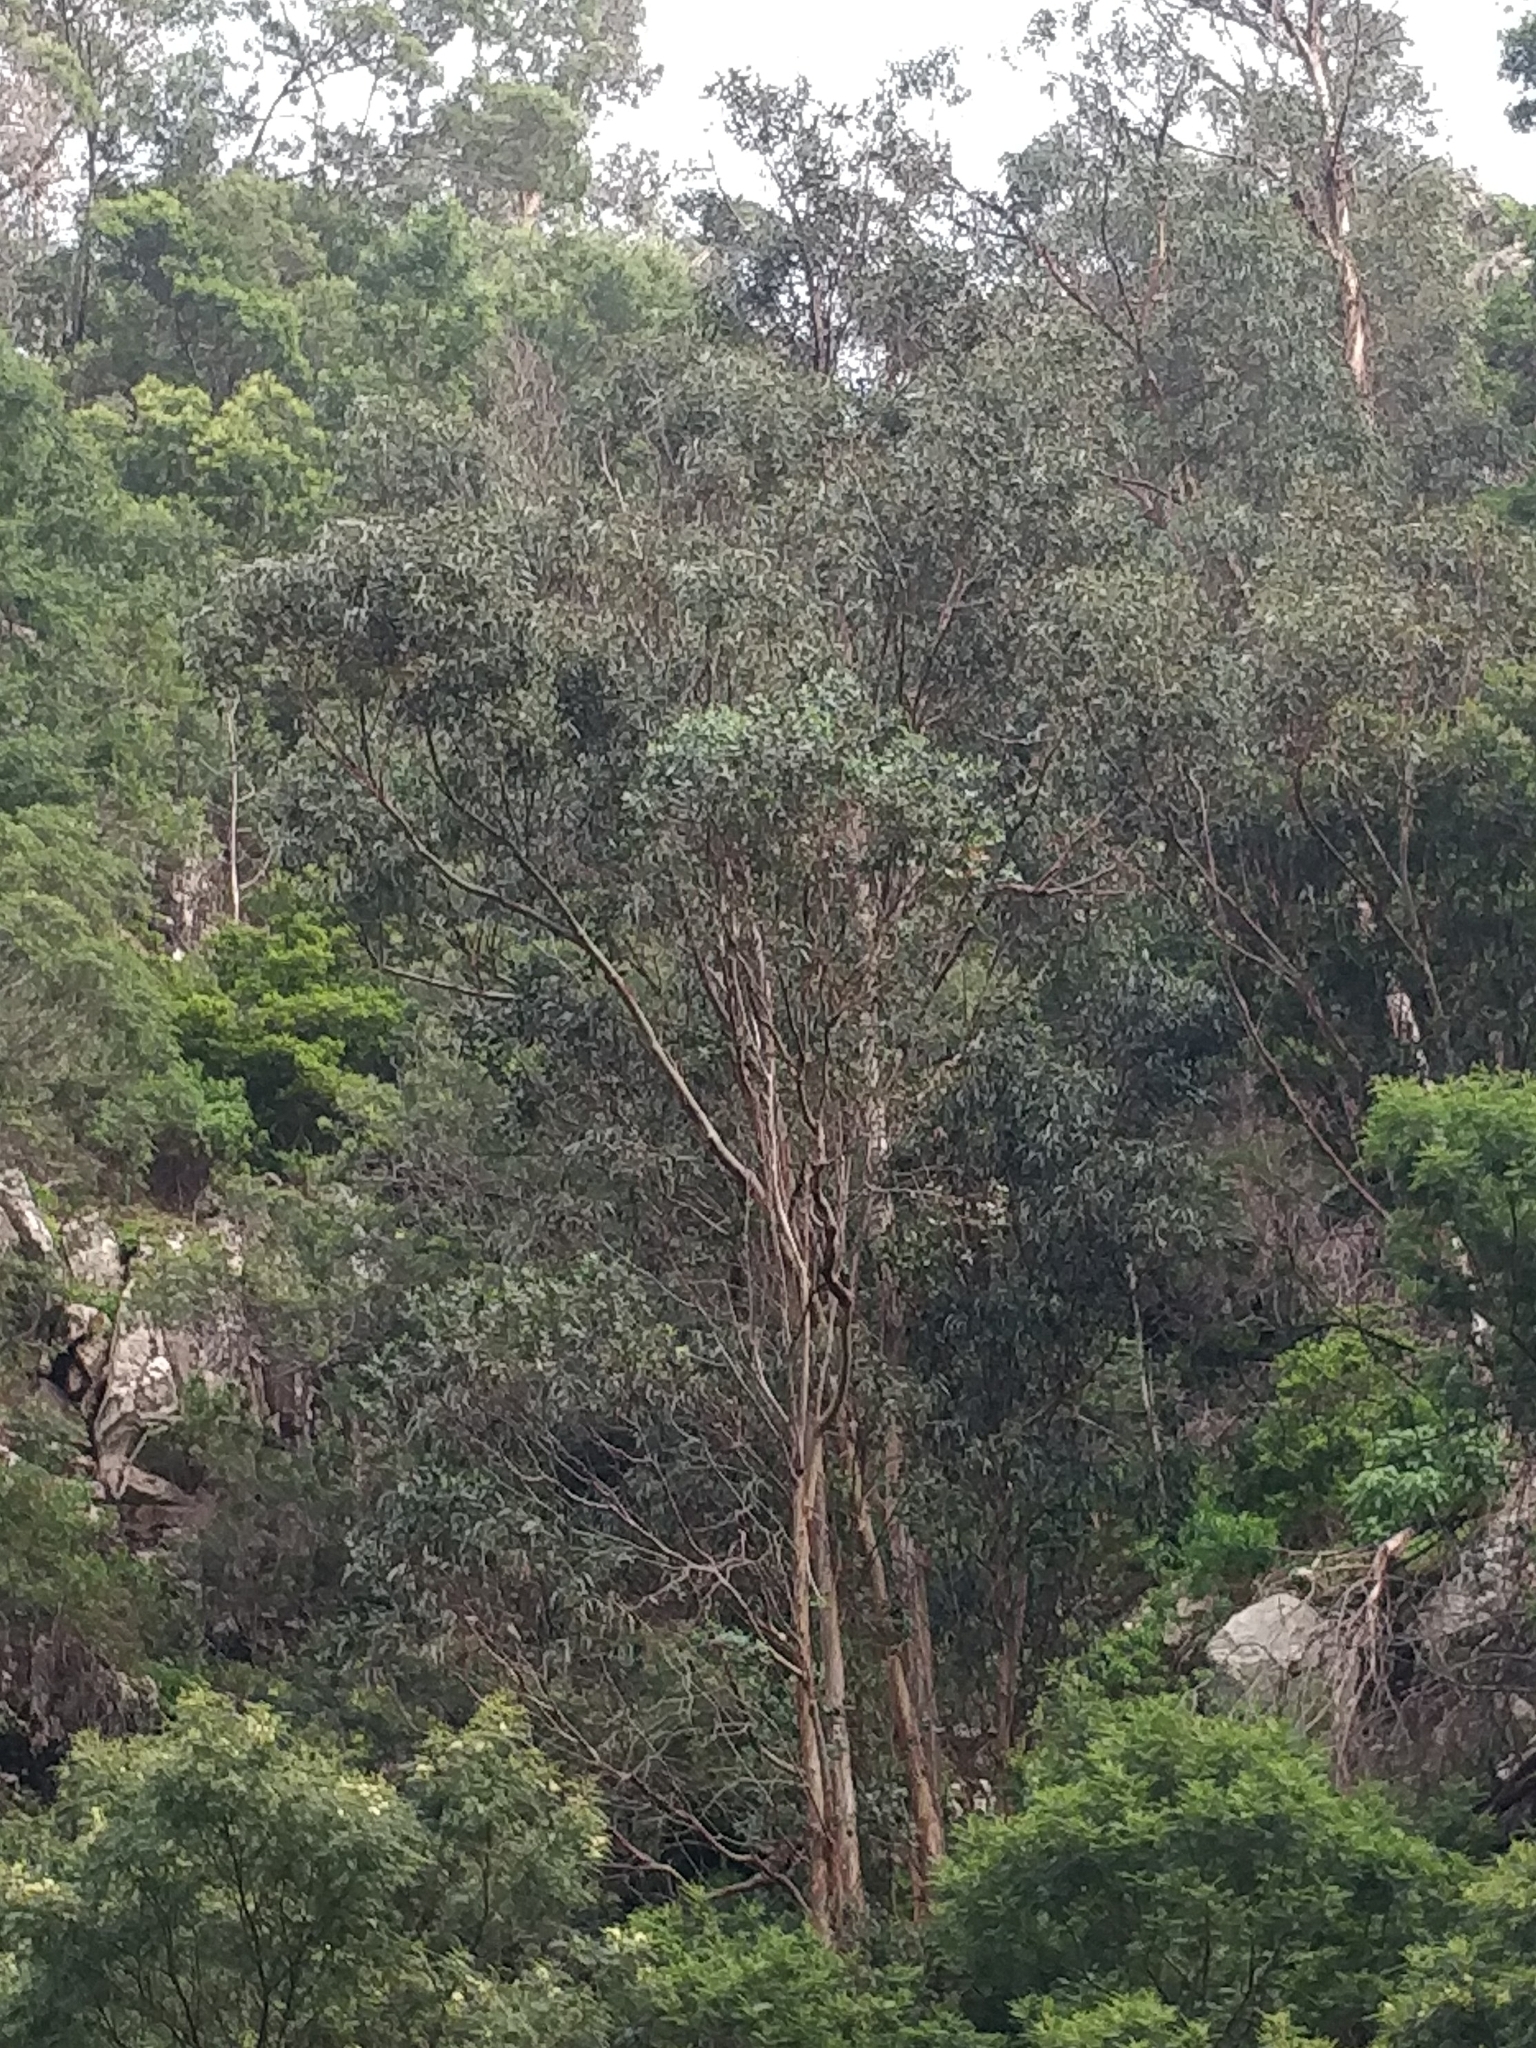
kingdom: Plantae
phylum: Tracheophyta
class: Magnoliopsida
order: Myrtales
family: Myrtaceae
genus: Eucalyptus
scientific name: Eucalyptus globulus
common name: Southern blue-gum
